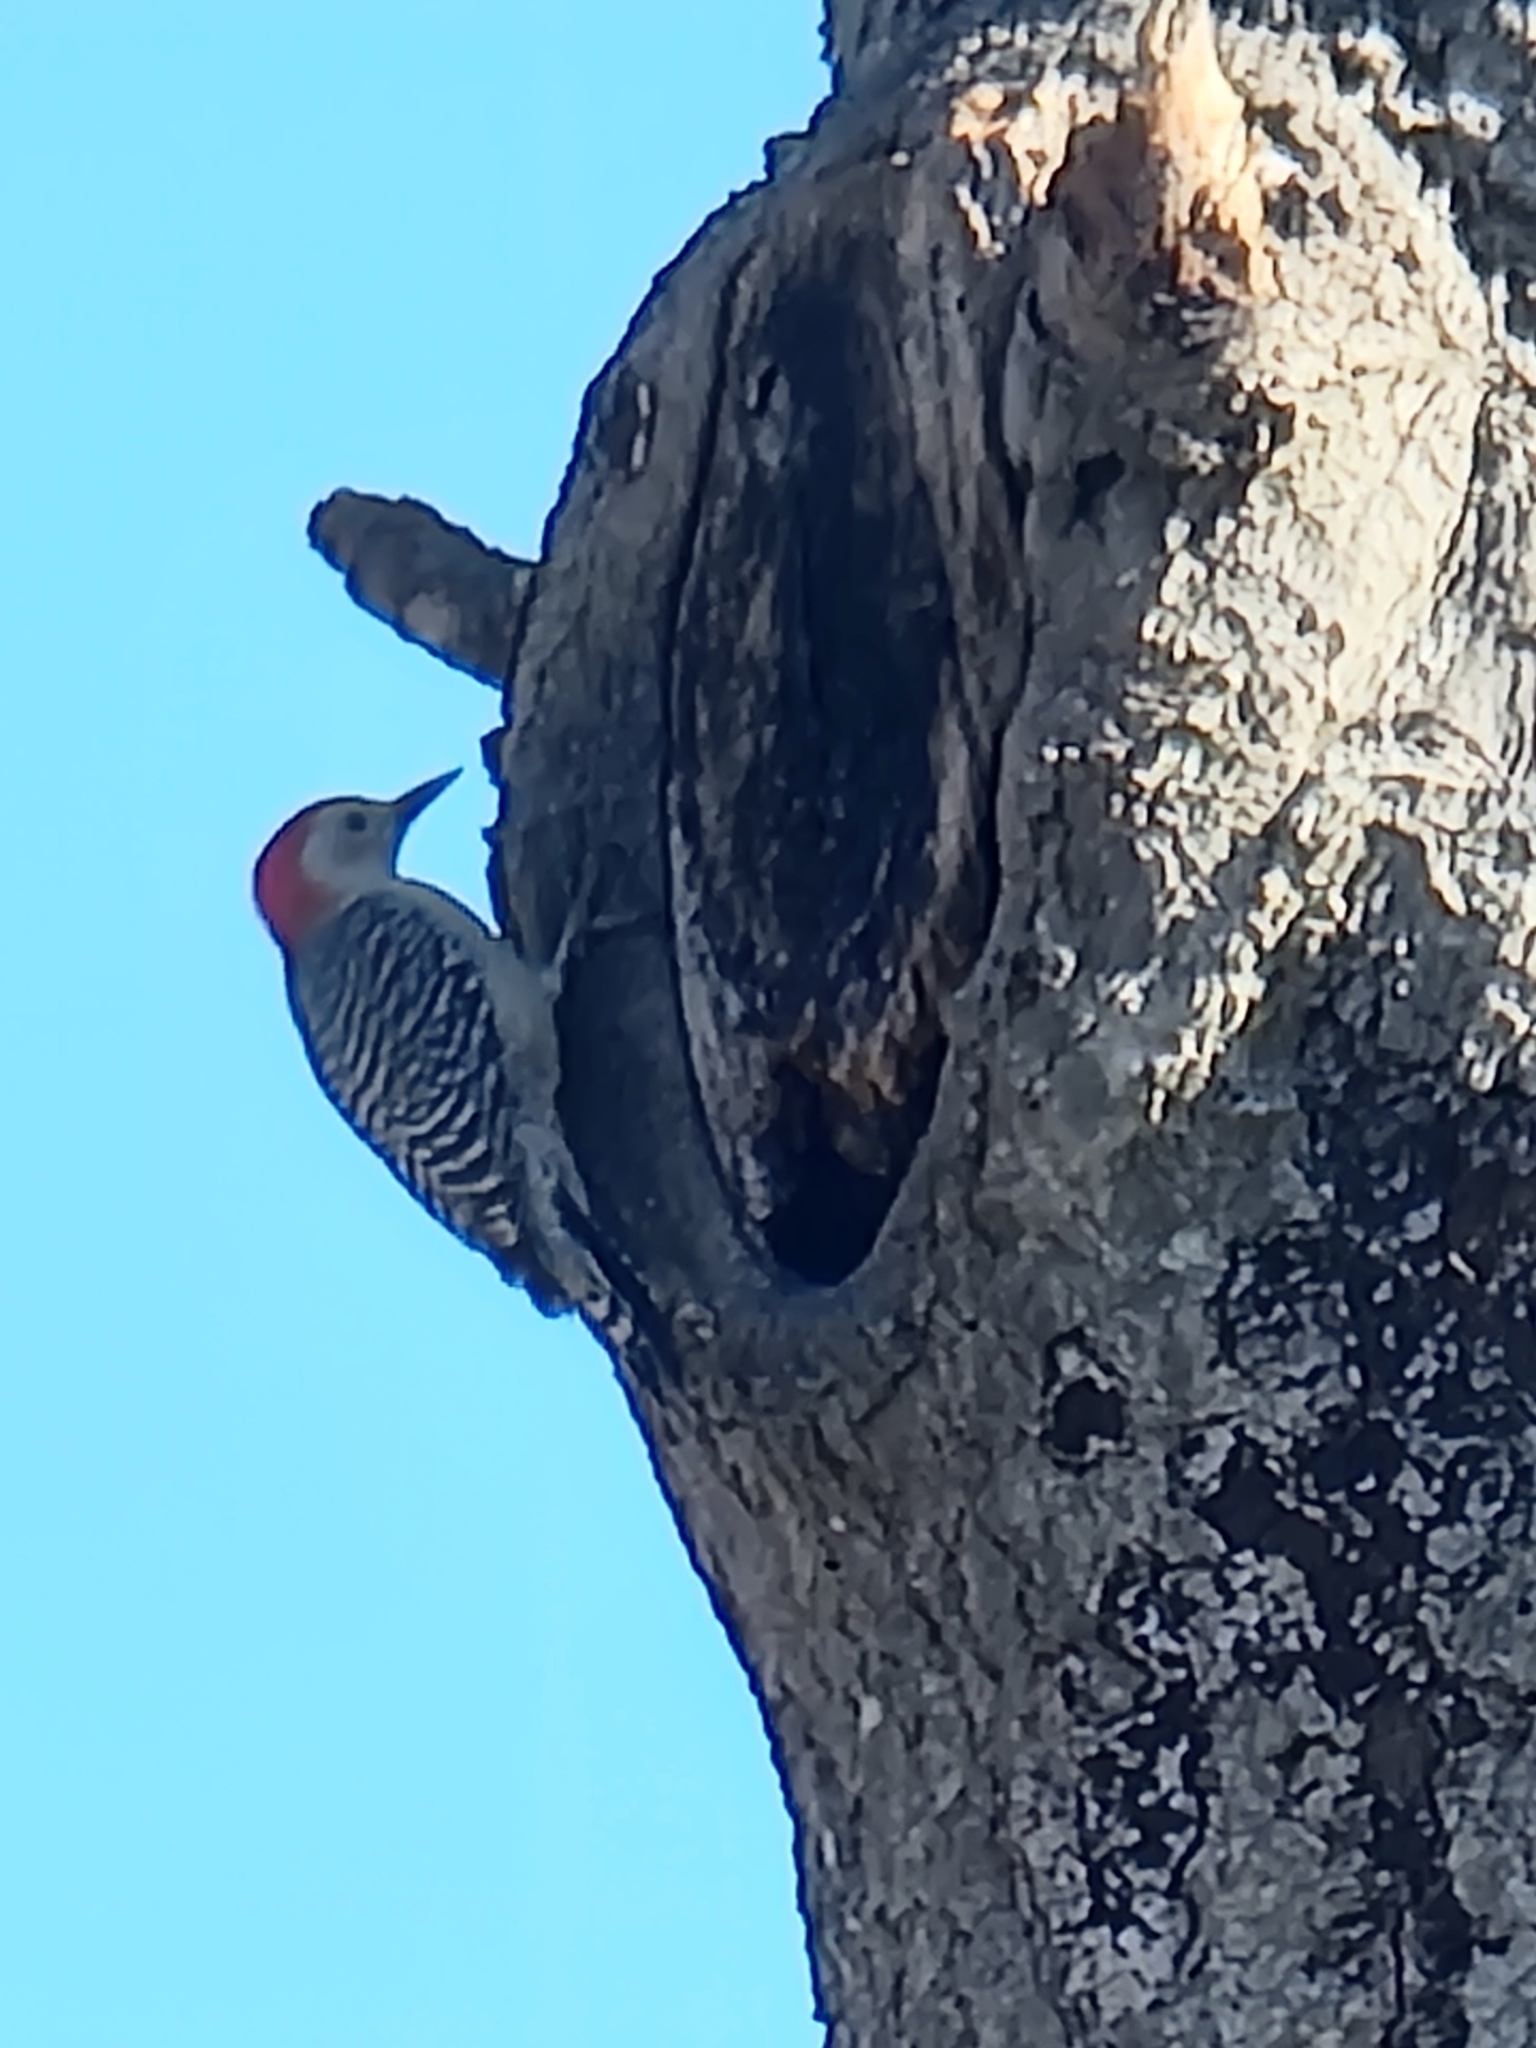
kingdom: Animalia
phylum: Chordata
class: Aves
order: Piciformes
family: Picidae
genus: Melanerpes
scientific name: Melanerpes carolinus
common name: Red-bellied woodpecker
